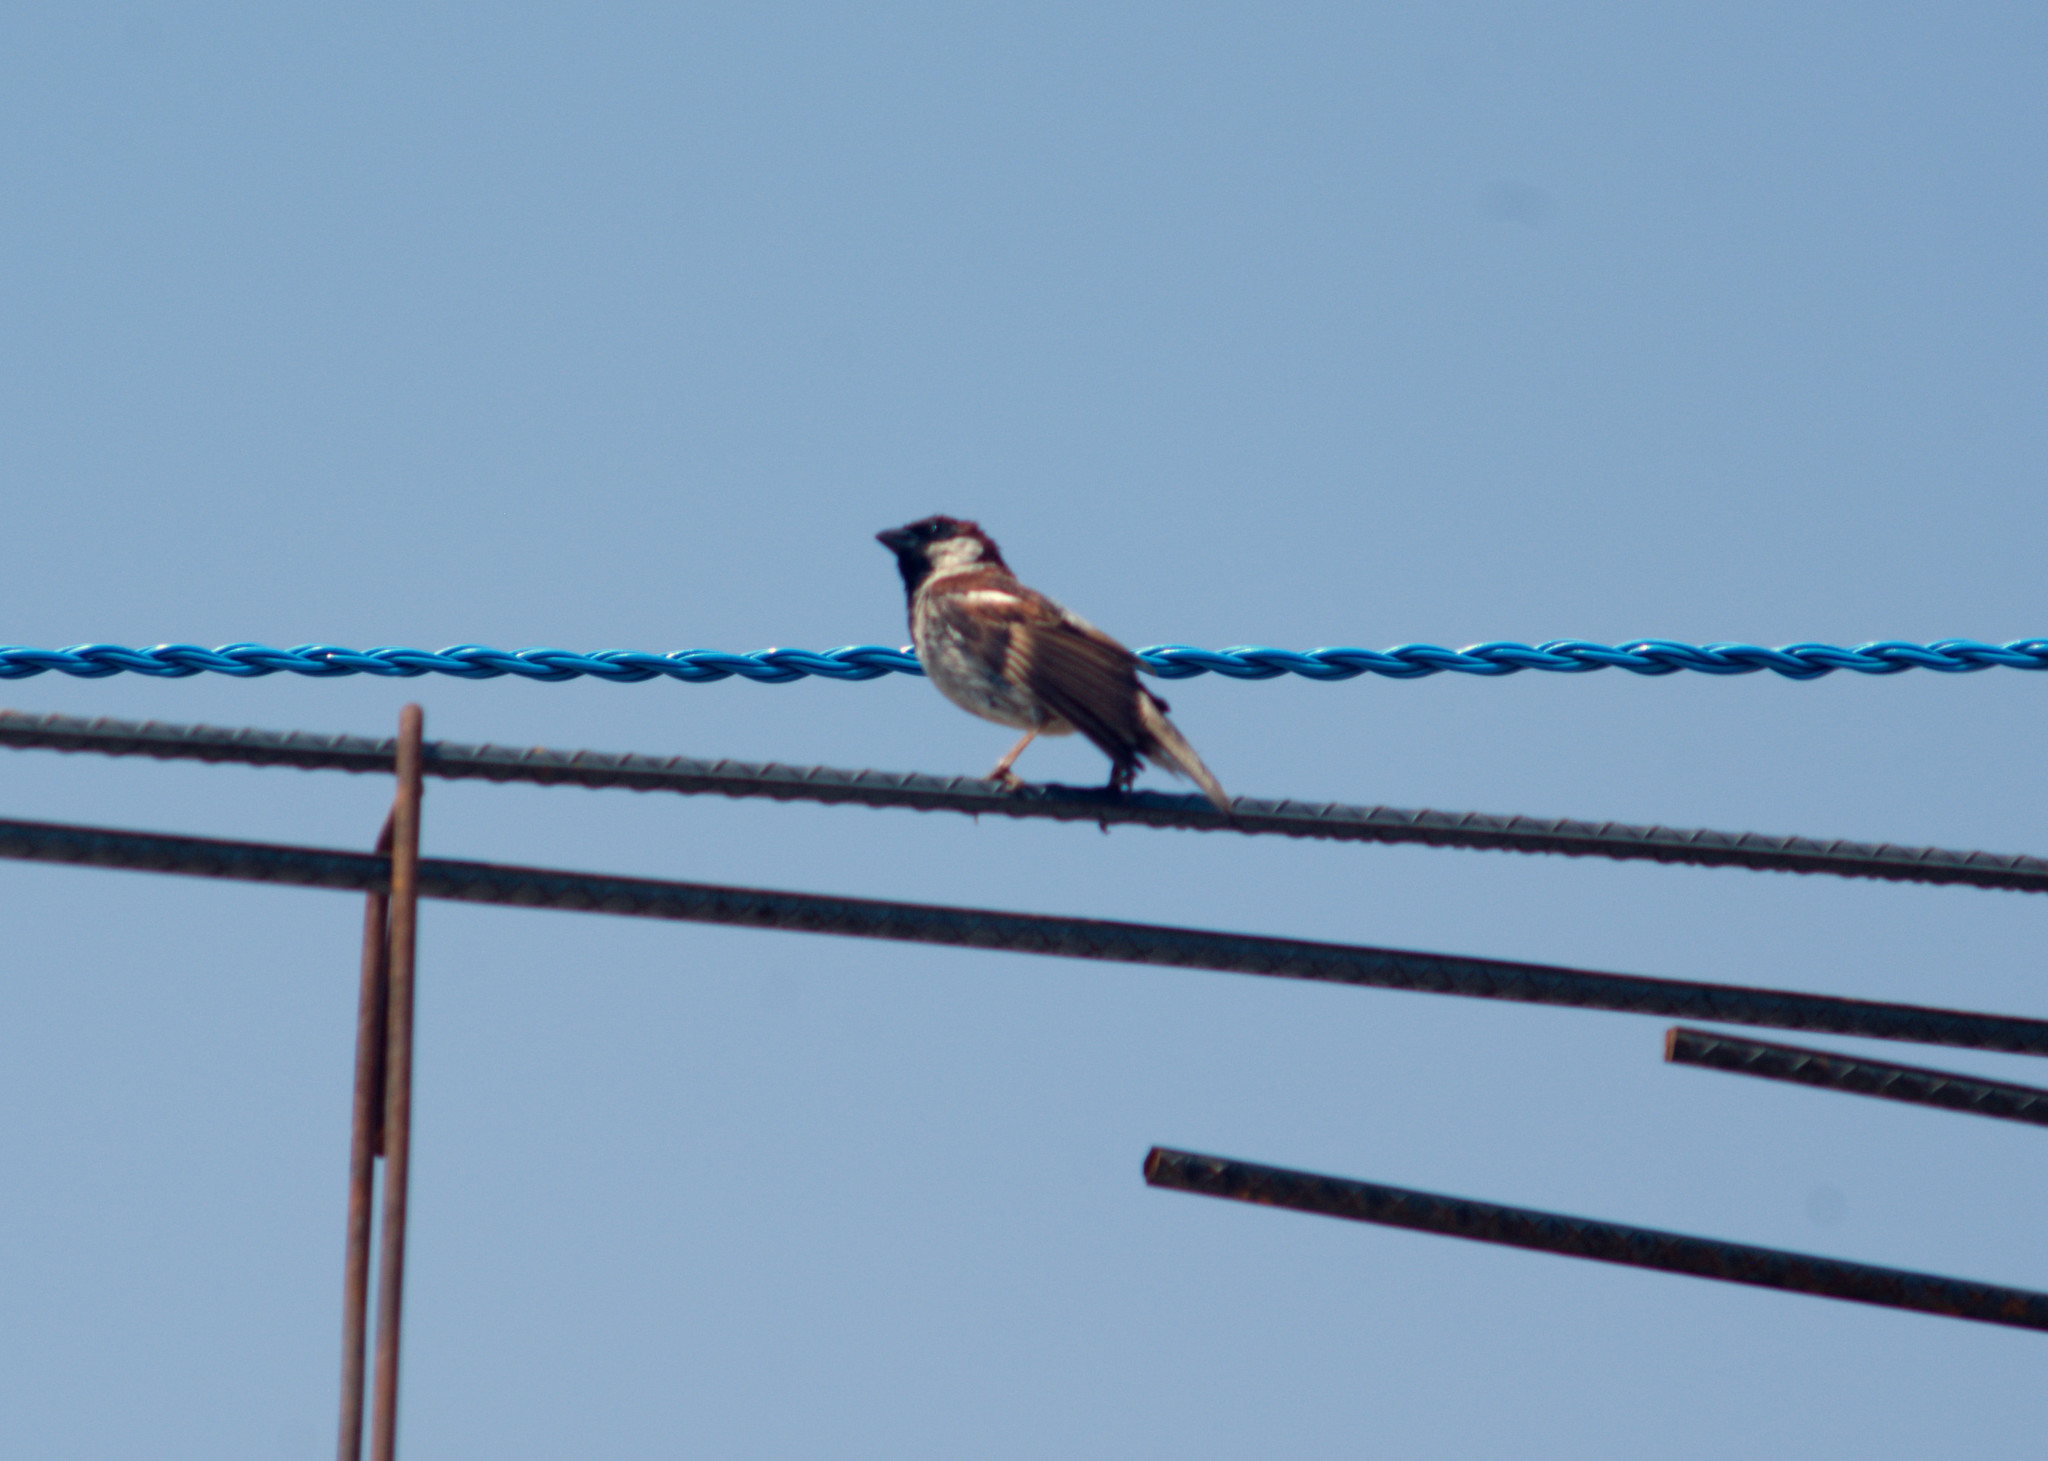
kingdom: Animalia
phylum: Chordata
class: Aves
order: Passeriformes
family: Passeridae
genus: Passer
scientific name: Passer domesticus
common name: House sparrow
